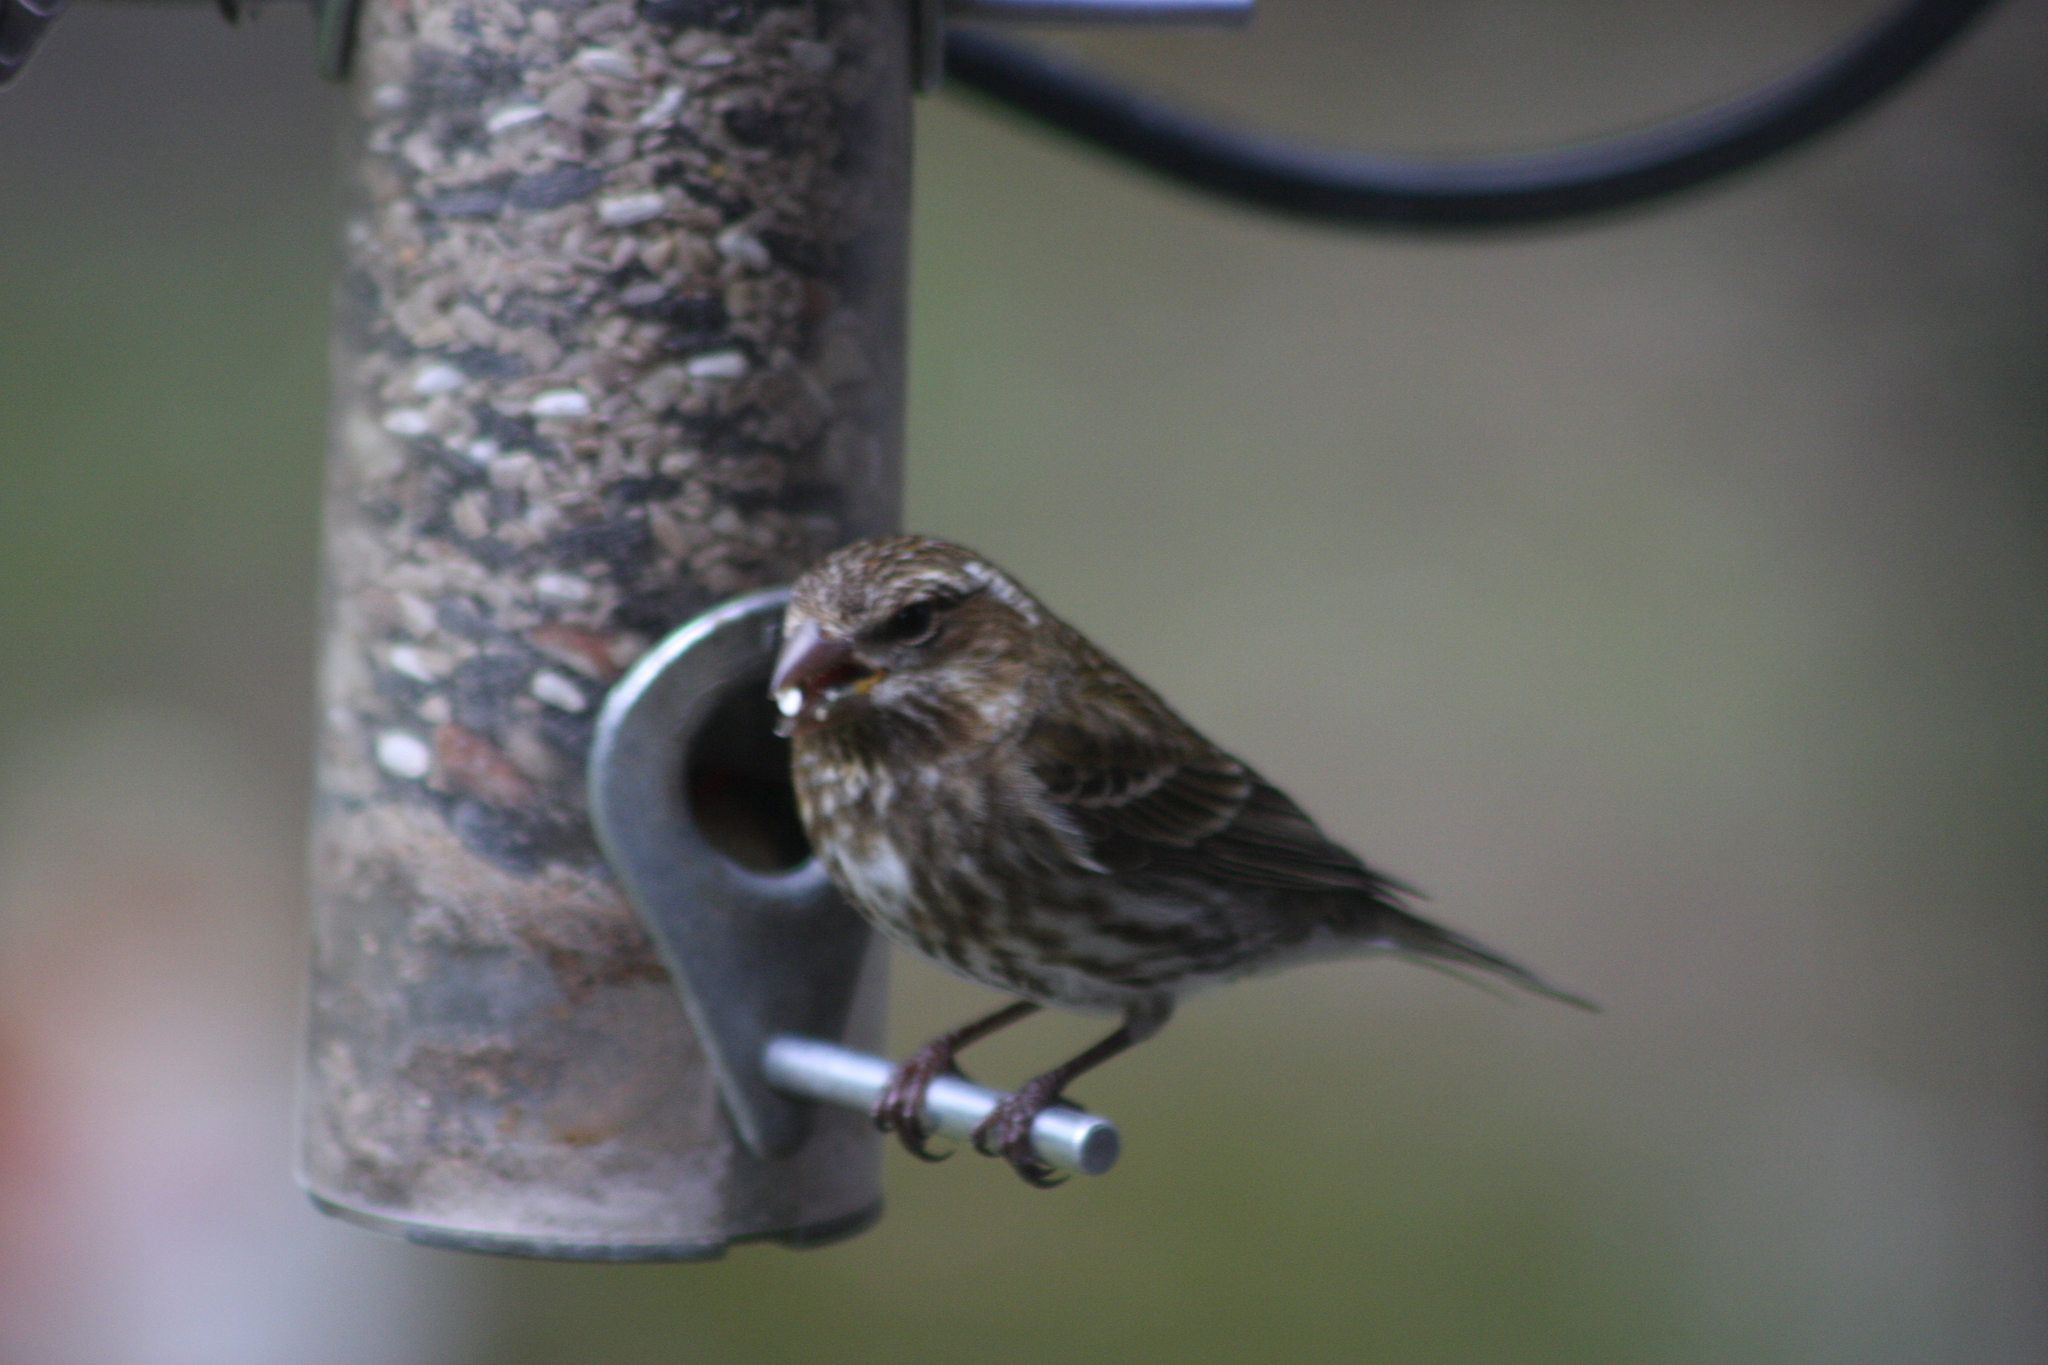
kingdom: Animalia
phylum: Chordata
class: Aves
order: Passeriformes
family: Fringillidae
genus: Haemorhous
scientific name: Haemorhous purpureus
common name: Purple finch
